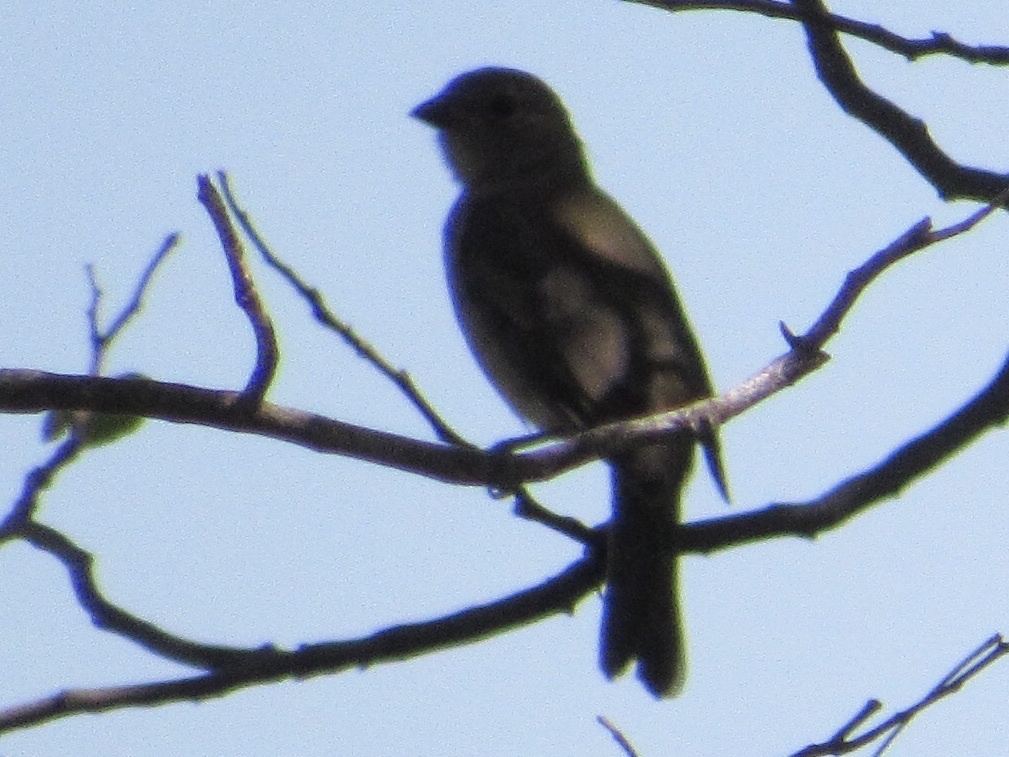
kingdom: Animalia
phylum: Chordata
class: Aves
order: Passeriformes
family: Cardinalidae
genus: Passerina
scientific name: Passerina ciris
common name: Painted bunting
